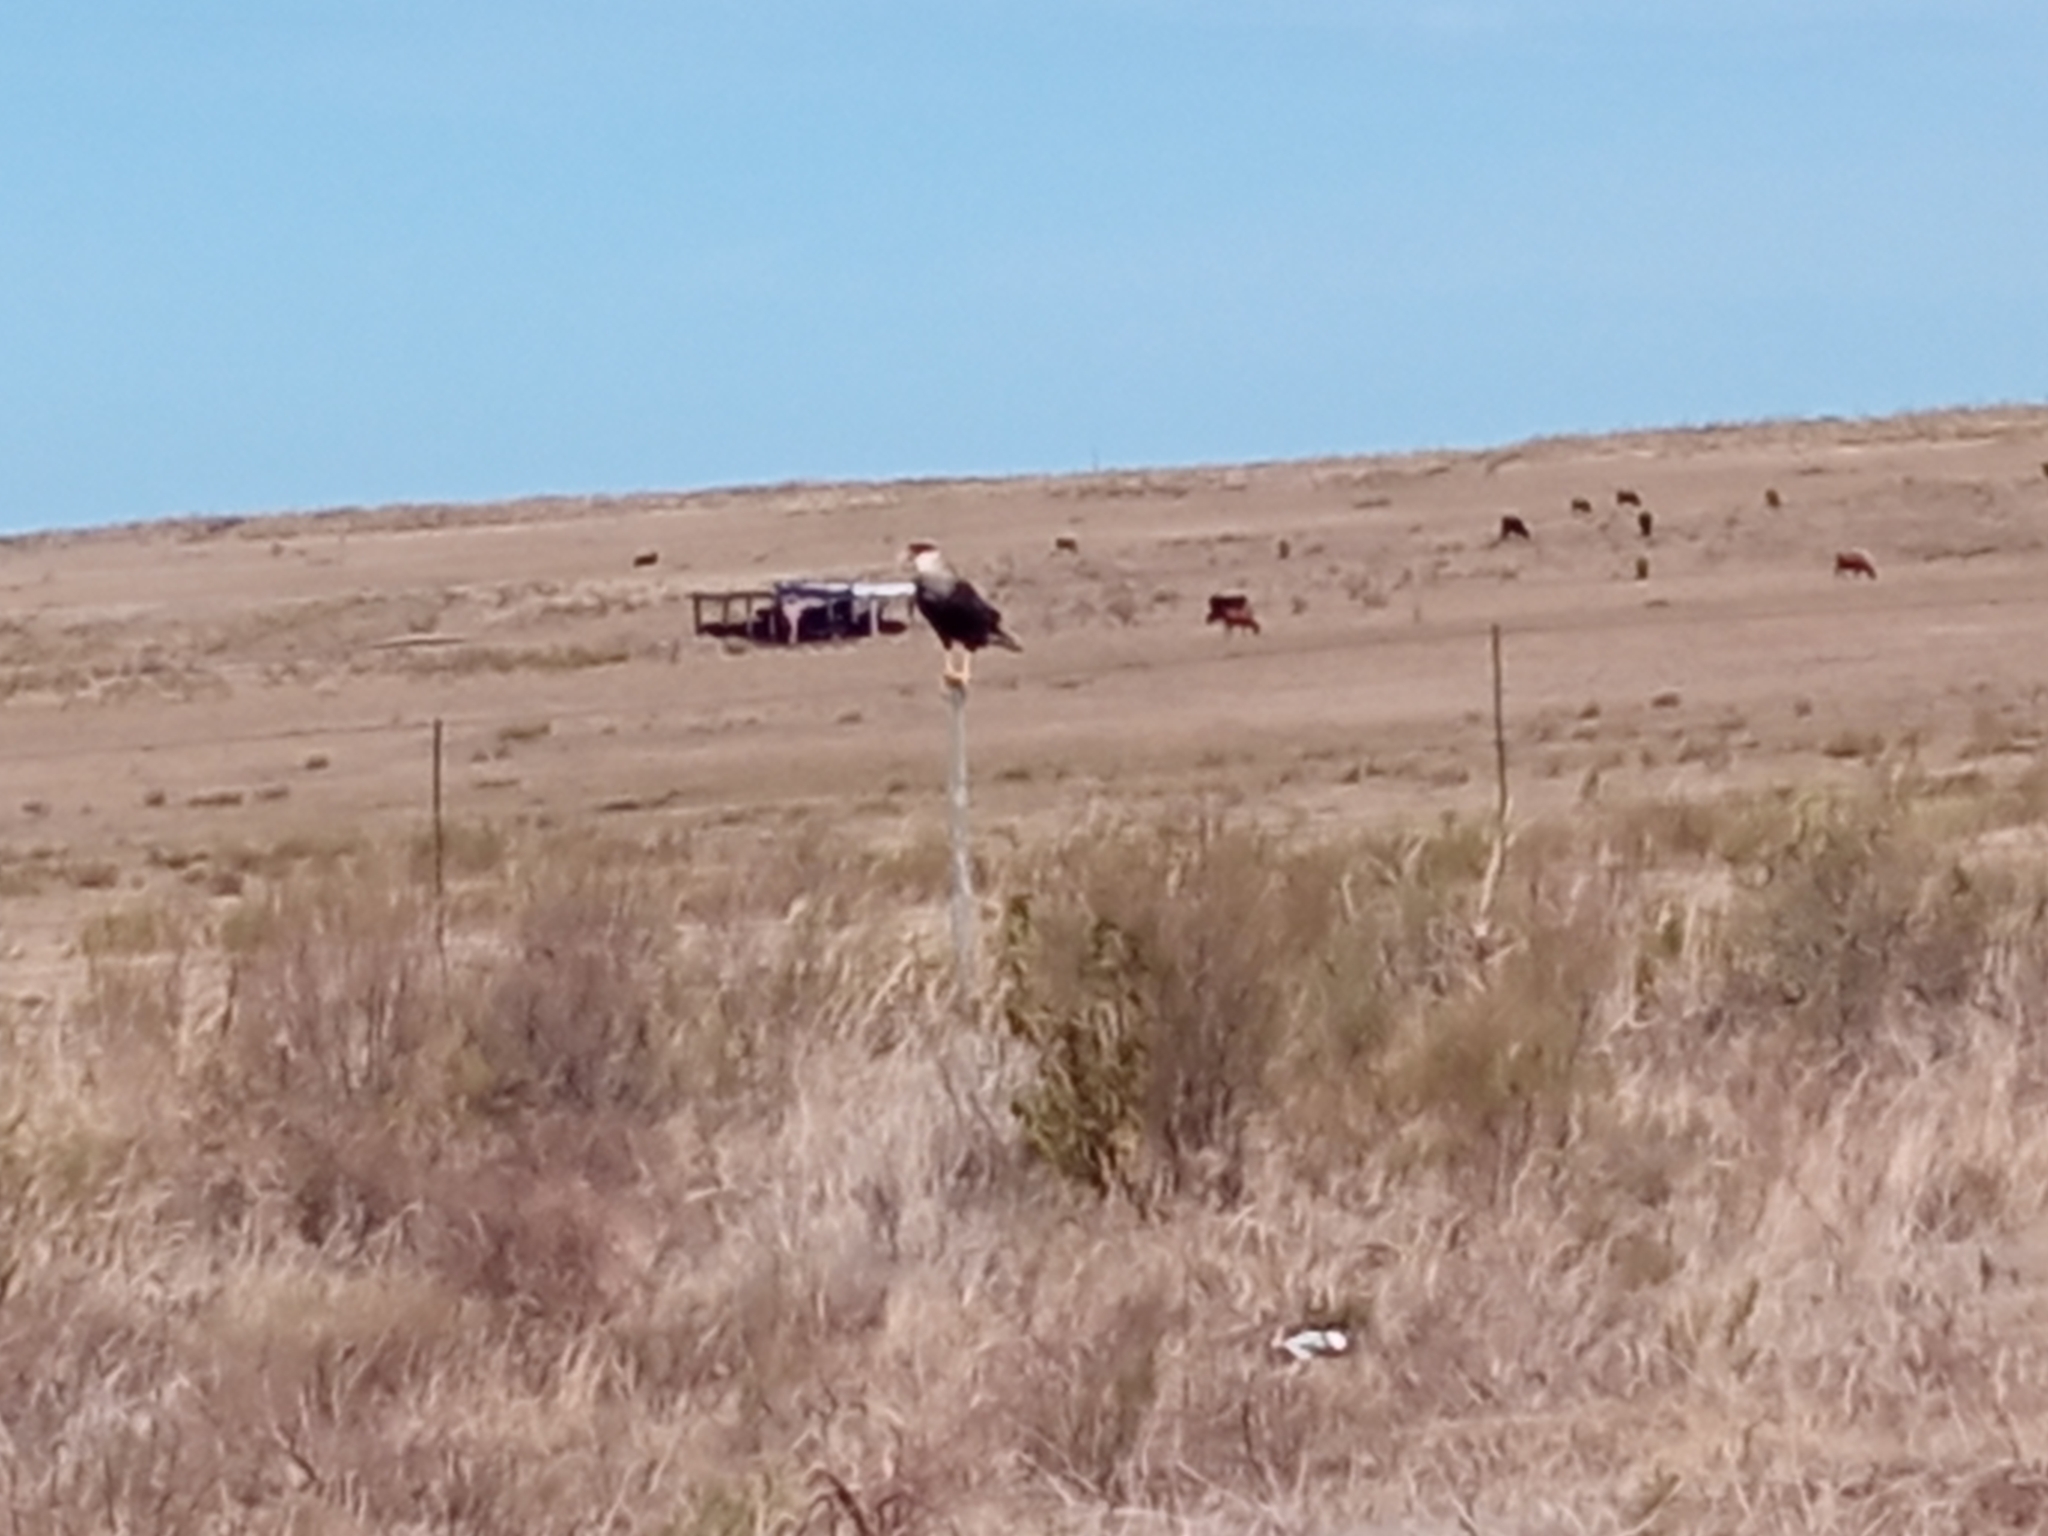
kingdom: Animalia
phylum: Chordata
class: Aves
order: Falconiformes
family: Falconidae
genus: Caracara
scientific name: Caracara plancus
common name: Southern caracara
